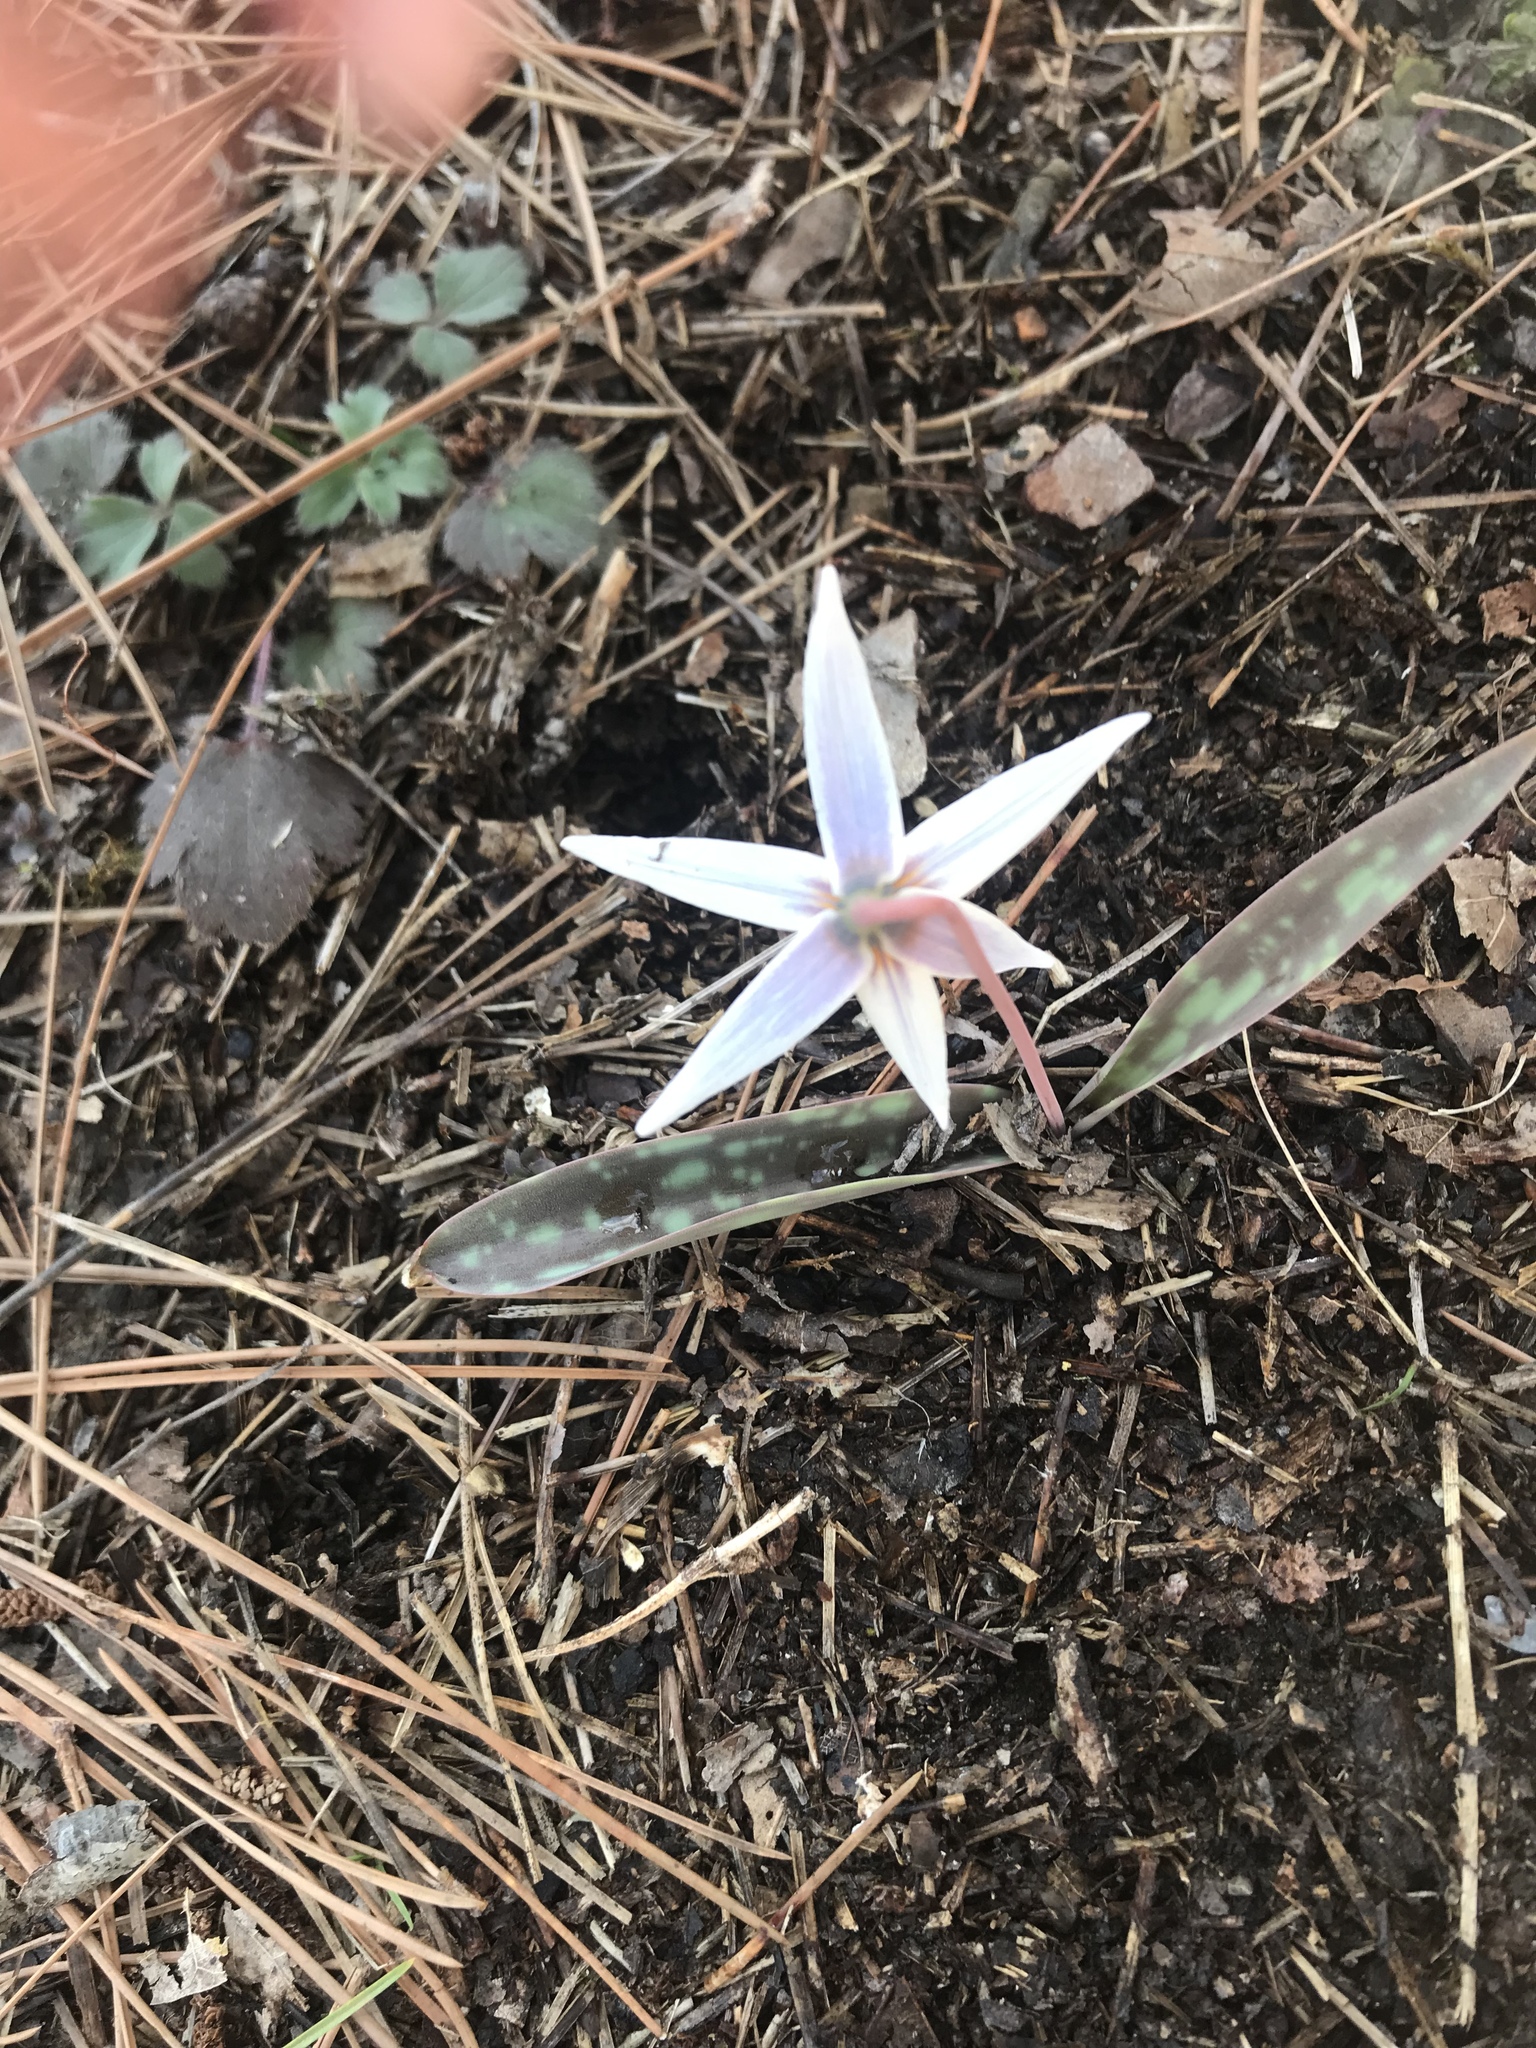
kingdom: Plantae
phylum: Tracheophyta
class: Liliopsida
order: Liliales
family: Liliaceae
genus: Erythronium
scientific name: Erythronium albidum
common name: White trout-lily
